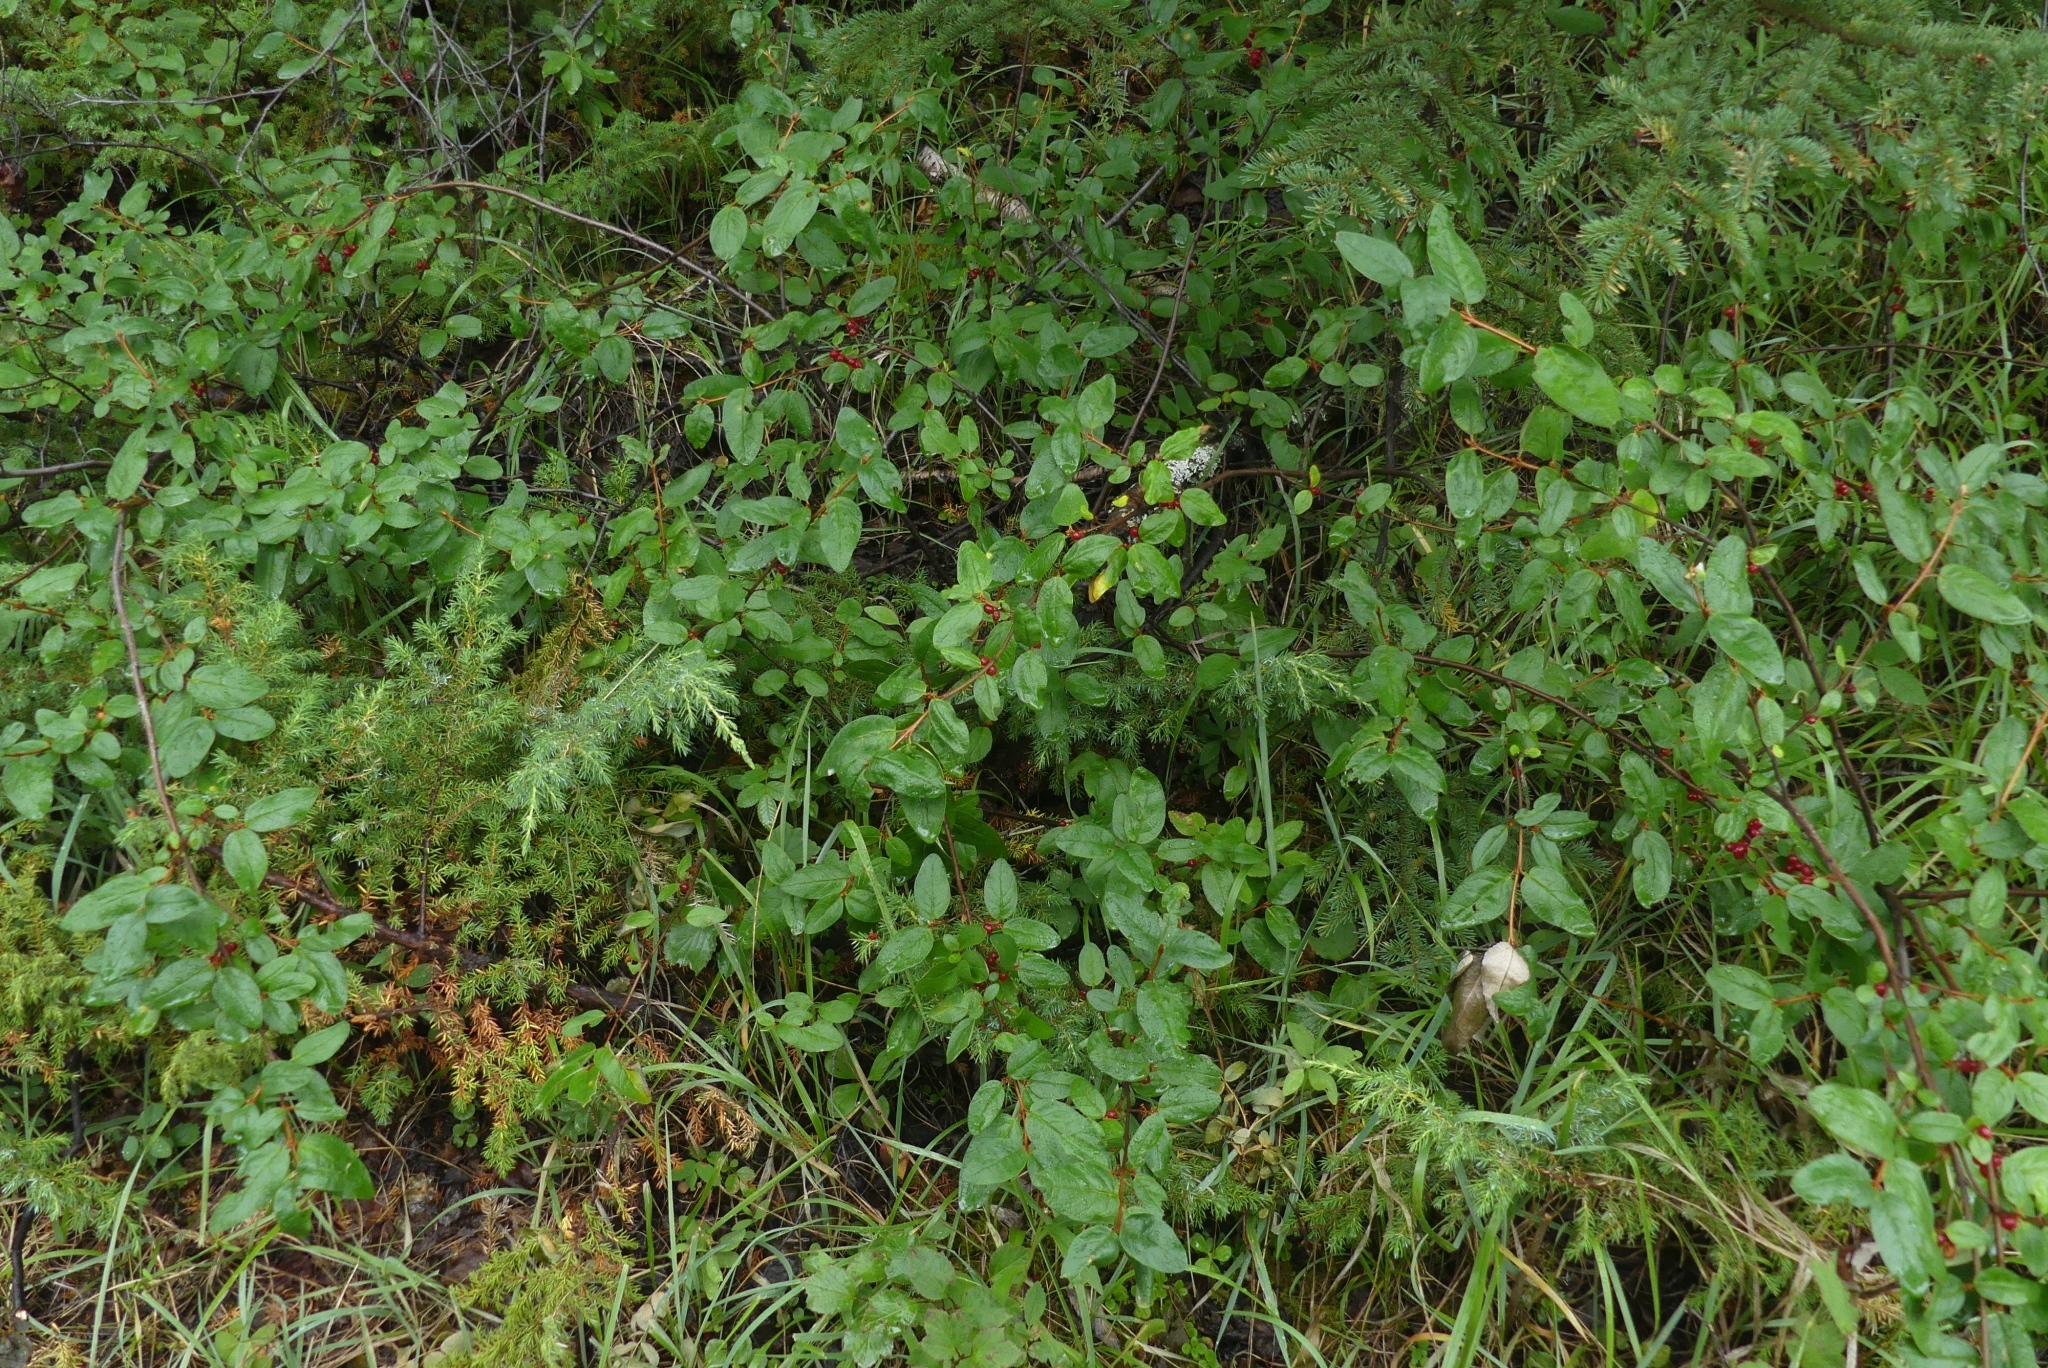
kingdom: Plantae
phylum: Tracheophyta
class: Magnoliopsida
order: Rosales
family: Elaeagnaceae
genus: Shepherdia
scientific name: Shepherdia canadensis
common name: Soapberry
